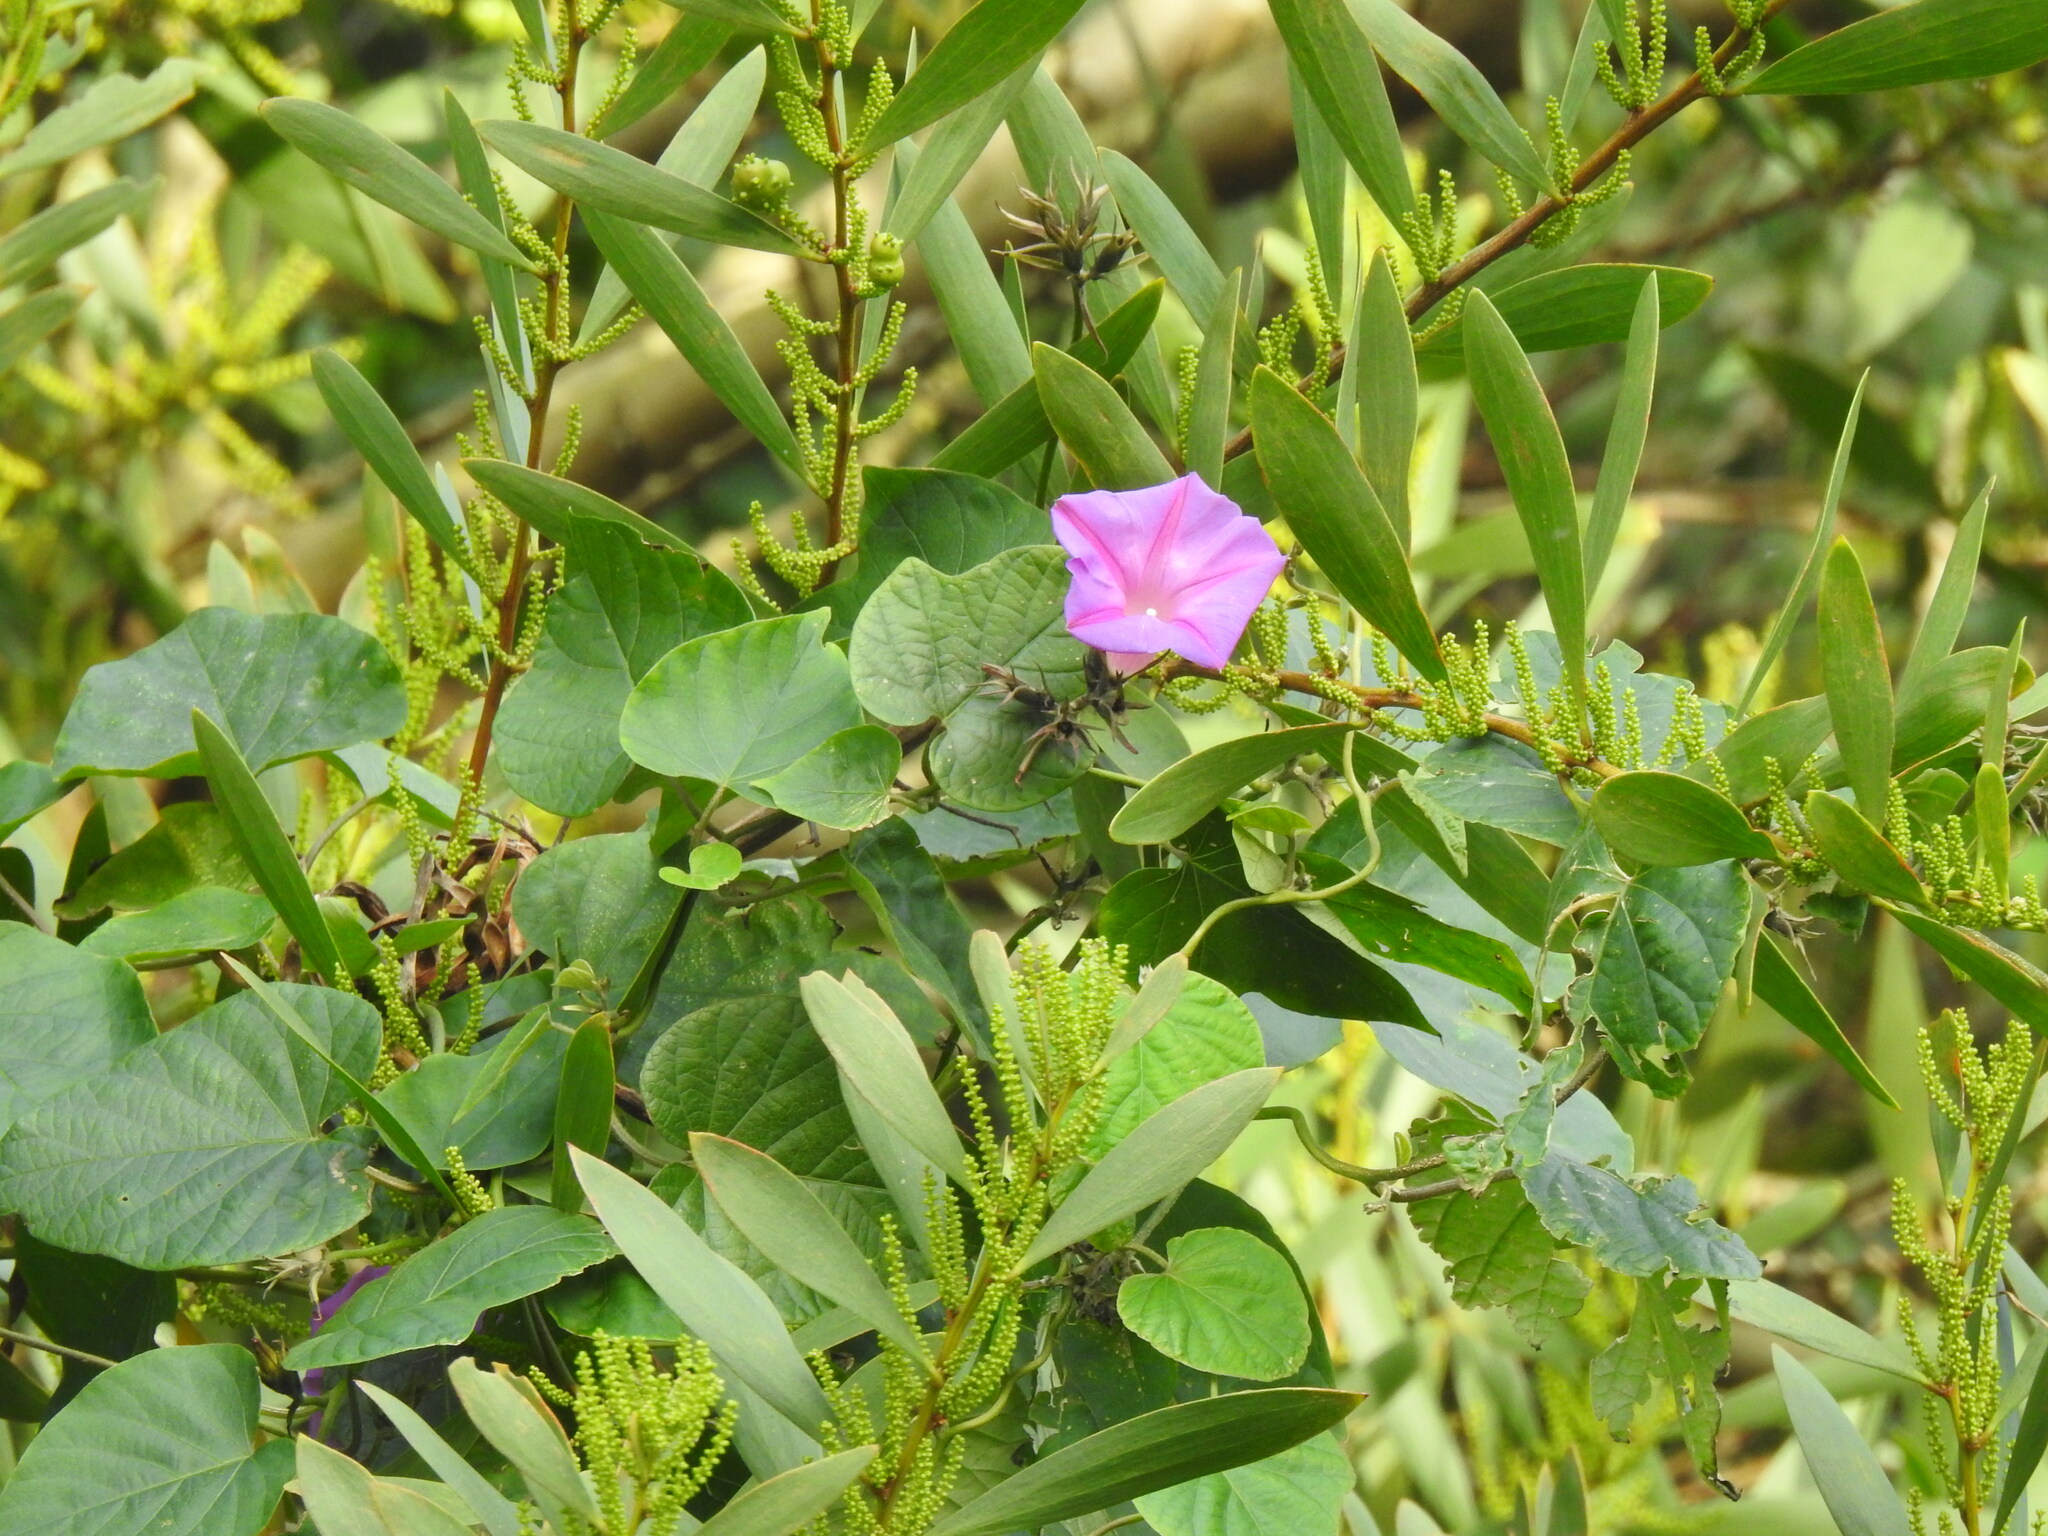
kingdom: Plantae
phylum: Tracheophyta
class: Magnoliopsida
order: Solanales
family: Convolvulaceae
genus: Ipomoea
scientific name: Ipomoea indica
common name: Blue dawnflower
